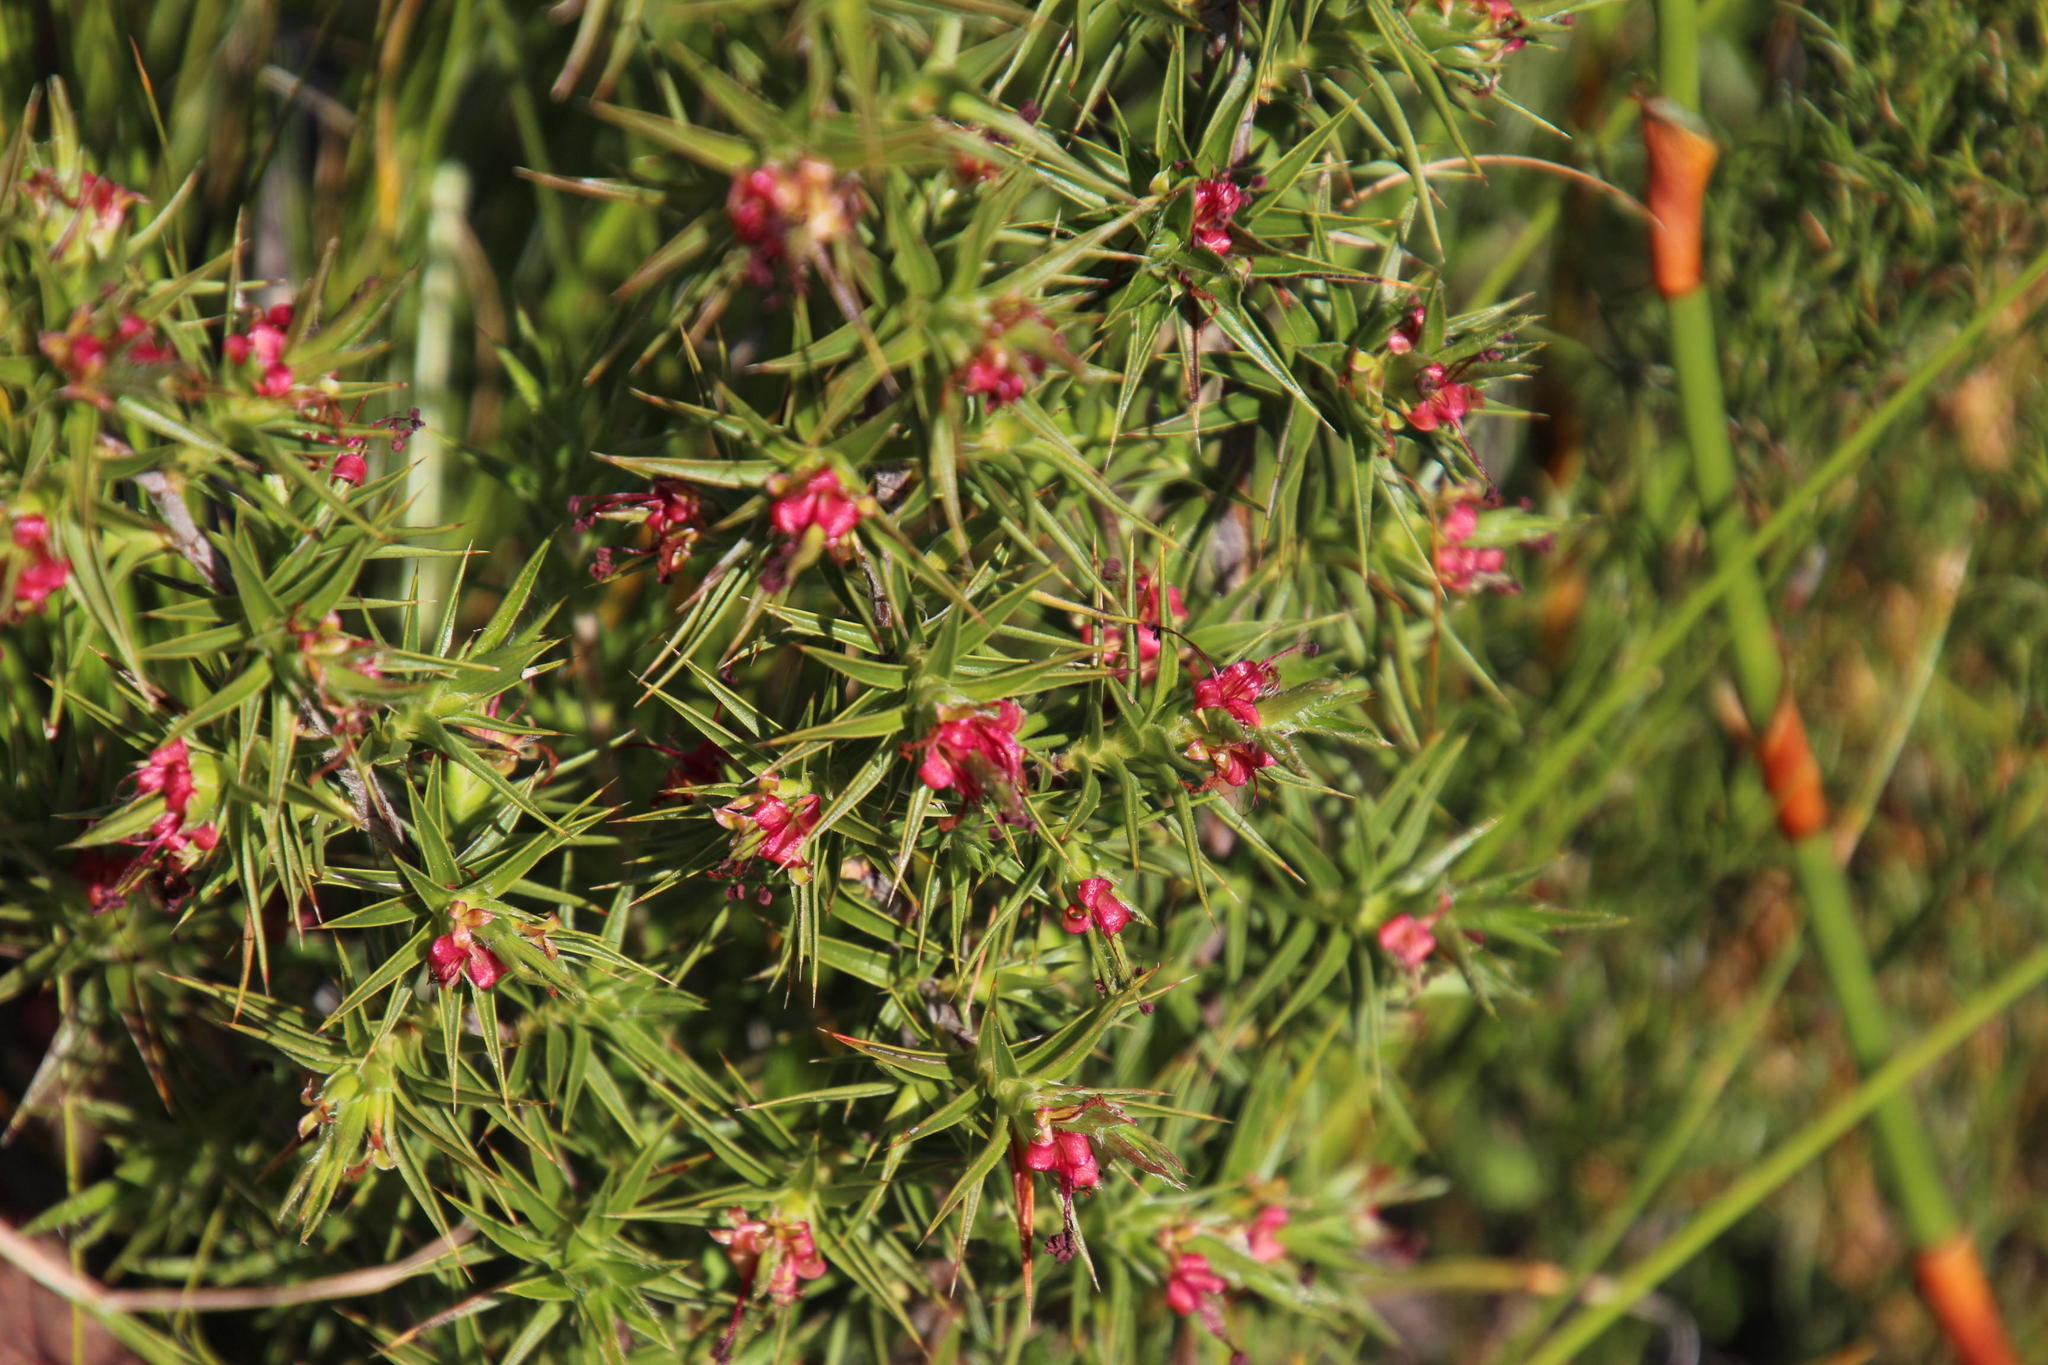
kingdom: Plantae
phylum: Tracheophyta
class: Magnoliopsida
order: Rosales
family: Rosaceae
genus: Cliffortia
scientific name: Cliffortia ruscifolia
